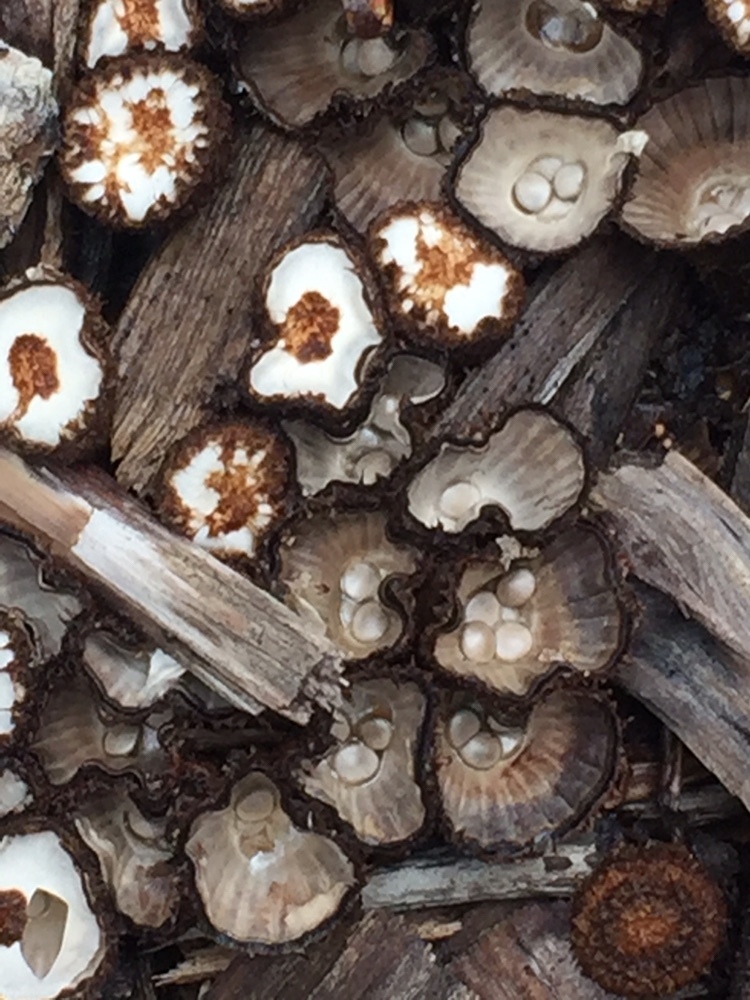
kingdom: Fungi
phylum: Basidiomycota
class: Agaricomycetes
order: Agaricales
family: Agaricaceae
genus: Cyathus
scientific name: Cyathus striatus
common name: Fluted bird's nest
